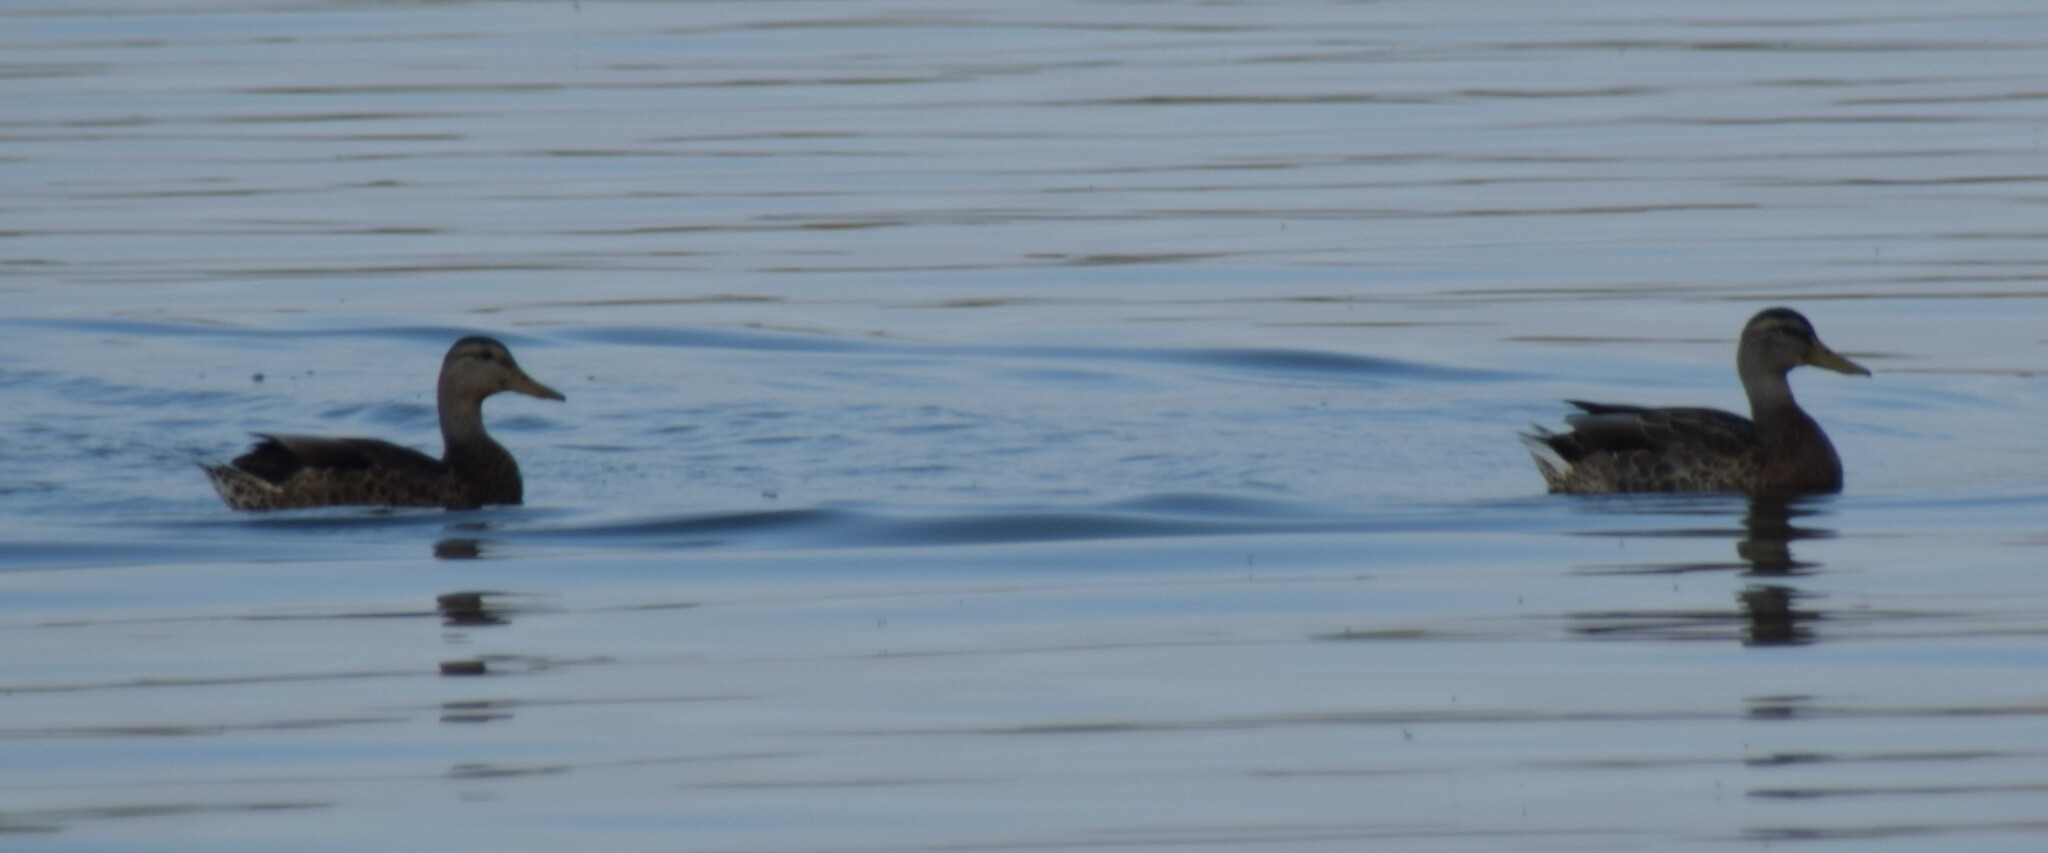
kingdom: Animalia
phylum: Chordata
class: Aves
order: Anseriformes
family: Anatidae
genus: Anas
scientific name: Anas platyrhynchos
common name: Mallard
